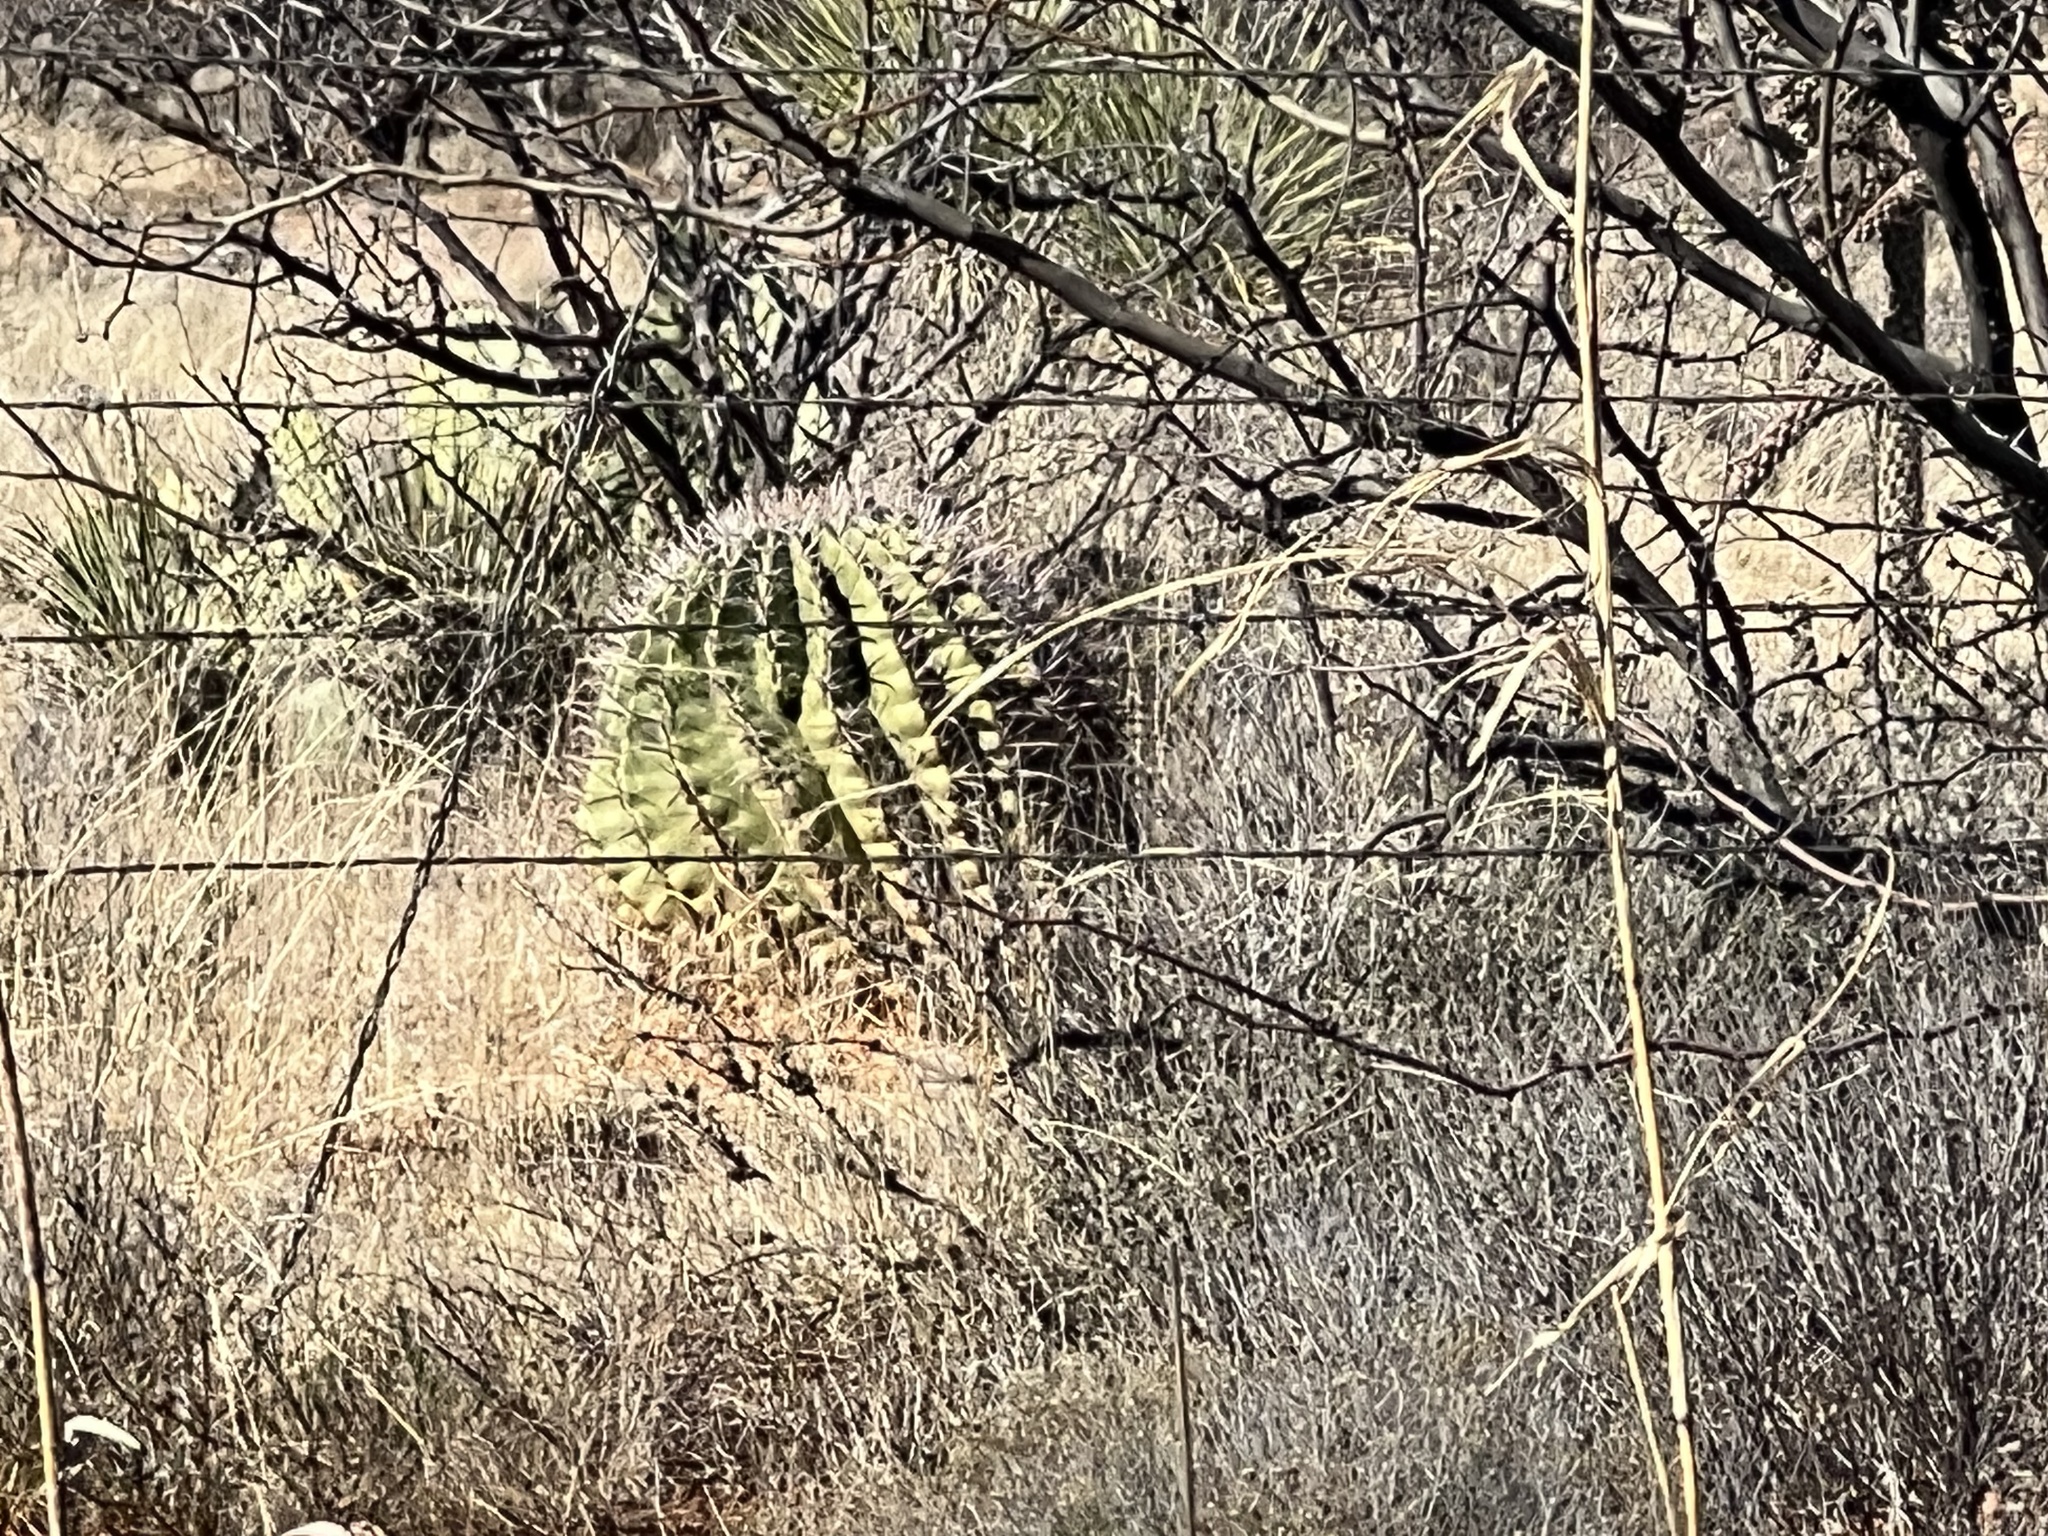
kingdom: Plantae
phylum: Tracheophyta
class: Magnoliopsida
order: Caryophyllales
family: Cactaceae
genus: Ferocactus
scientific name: Ferocactus wislizeni
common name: Candy barrel cactus
